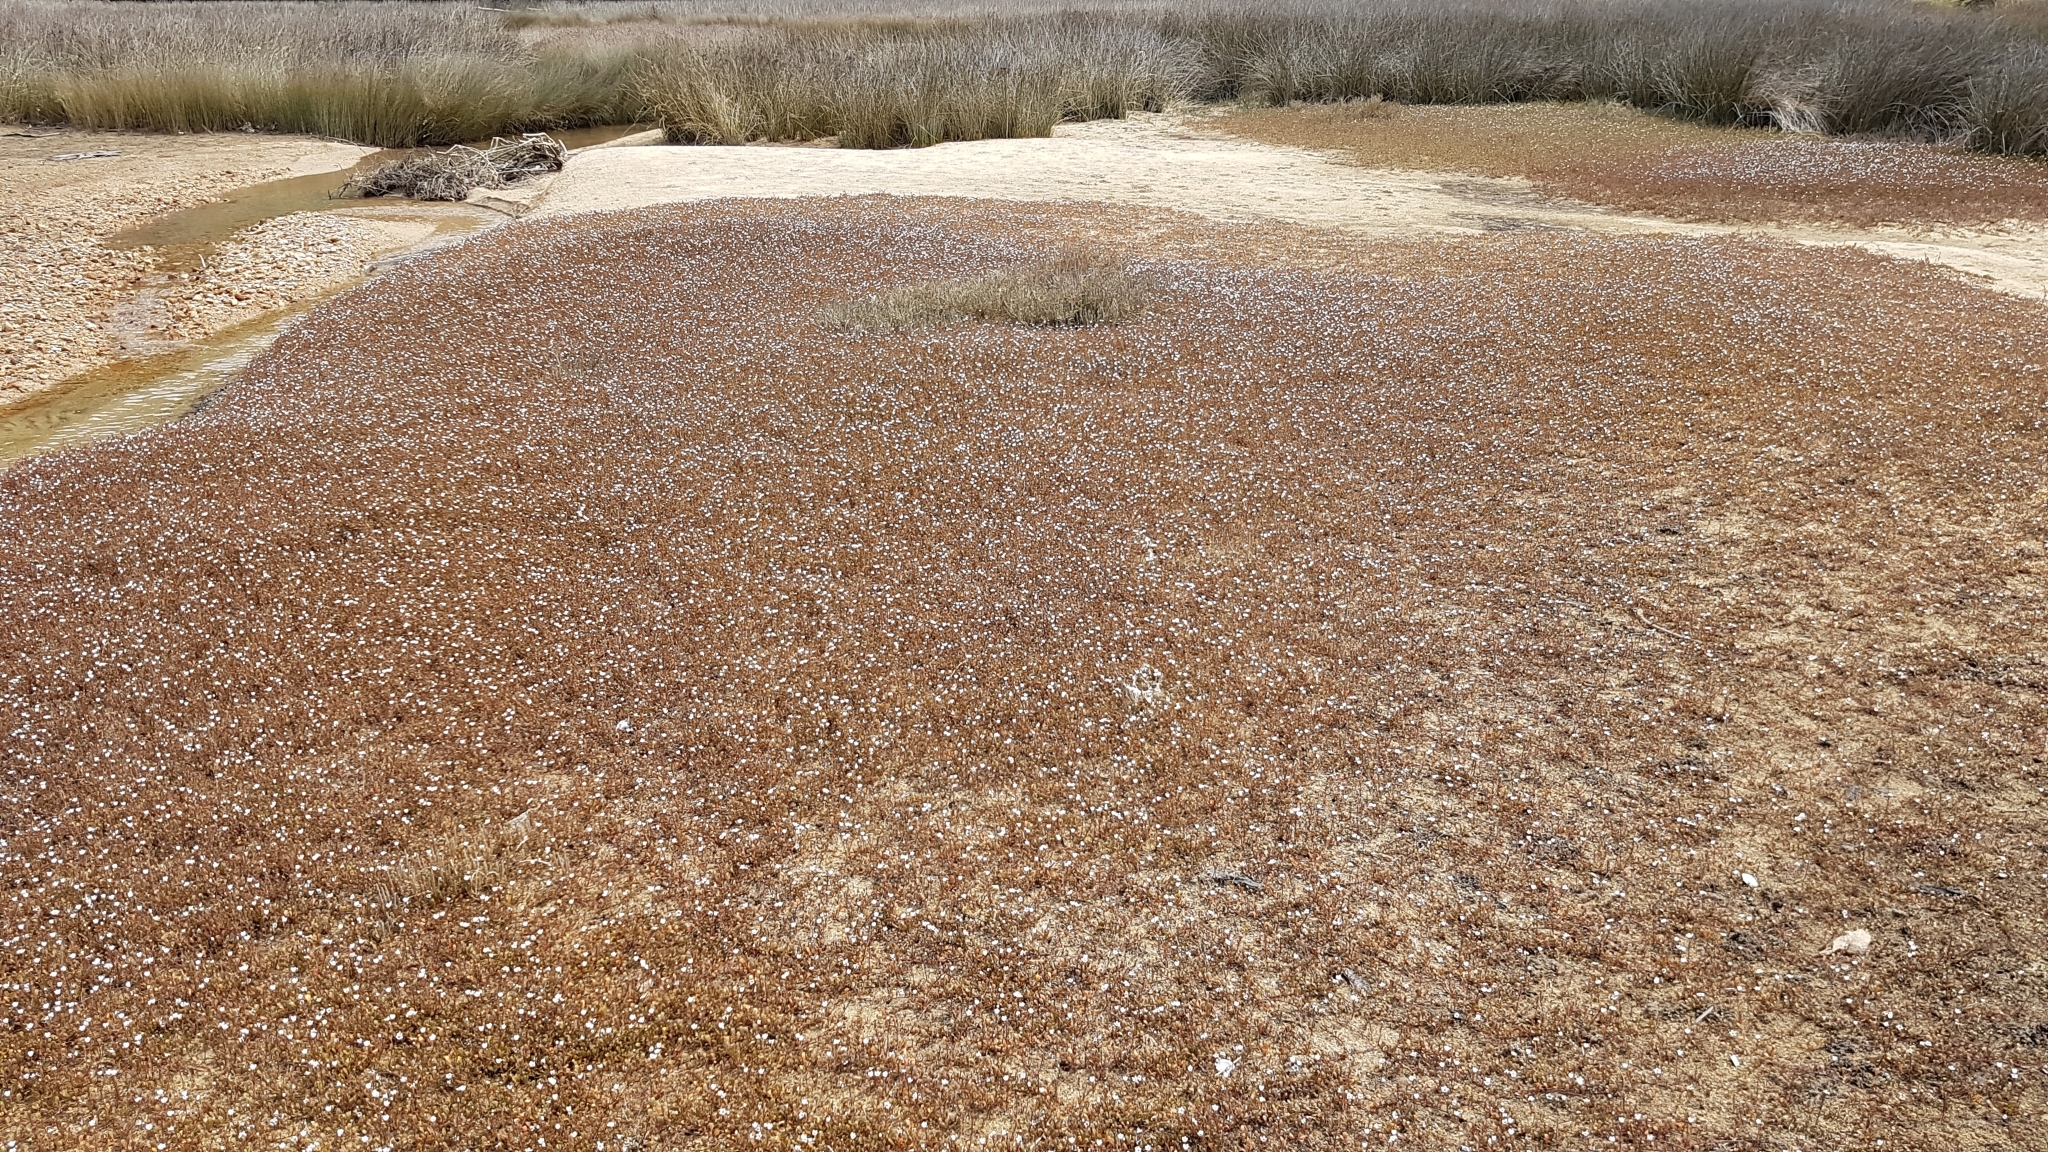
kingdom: Plantae
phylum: Tracheophyta
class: Magnoliopsida
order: Ericales
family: Primulaceae
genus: Samolus
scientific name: Samolus repens
